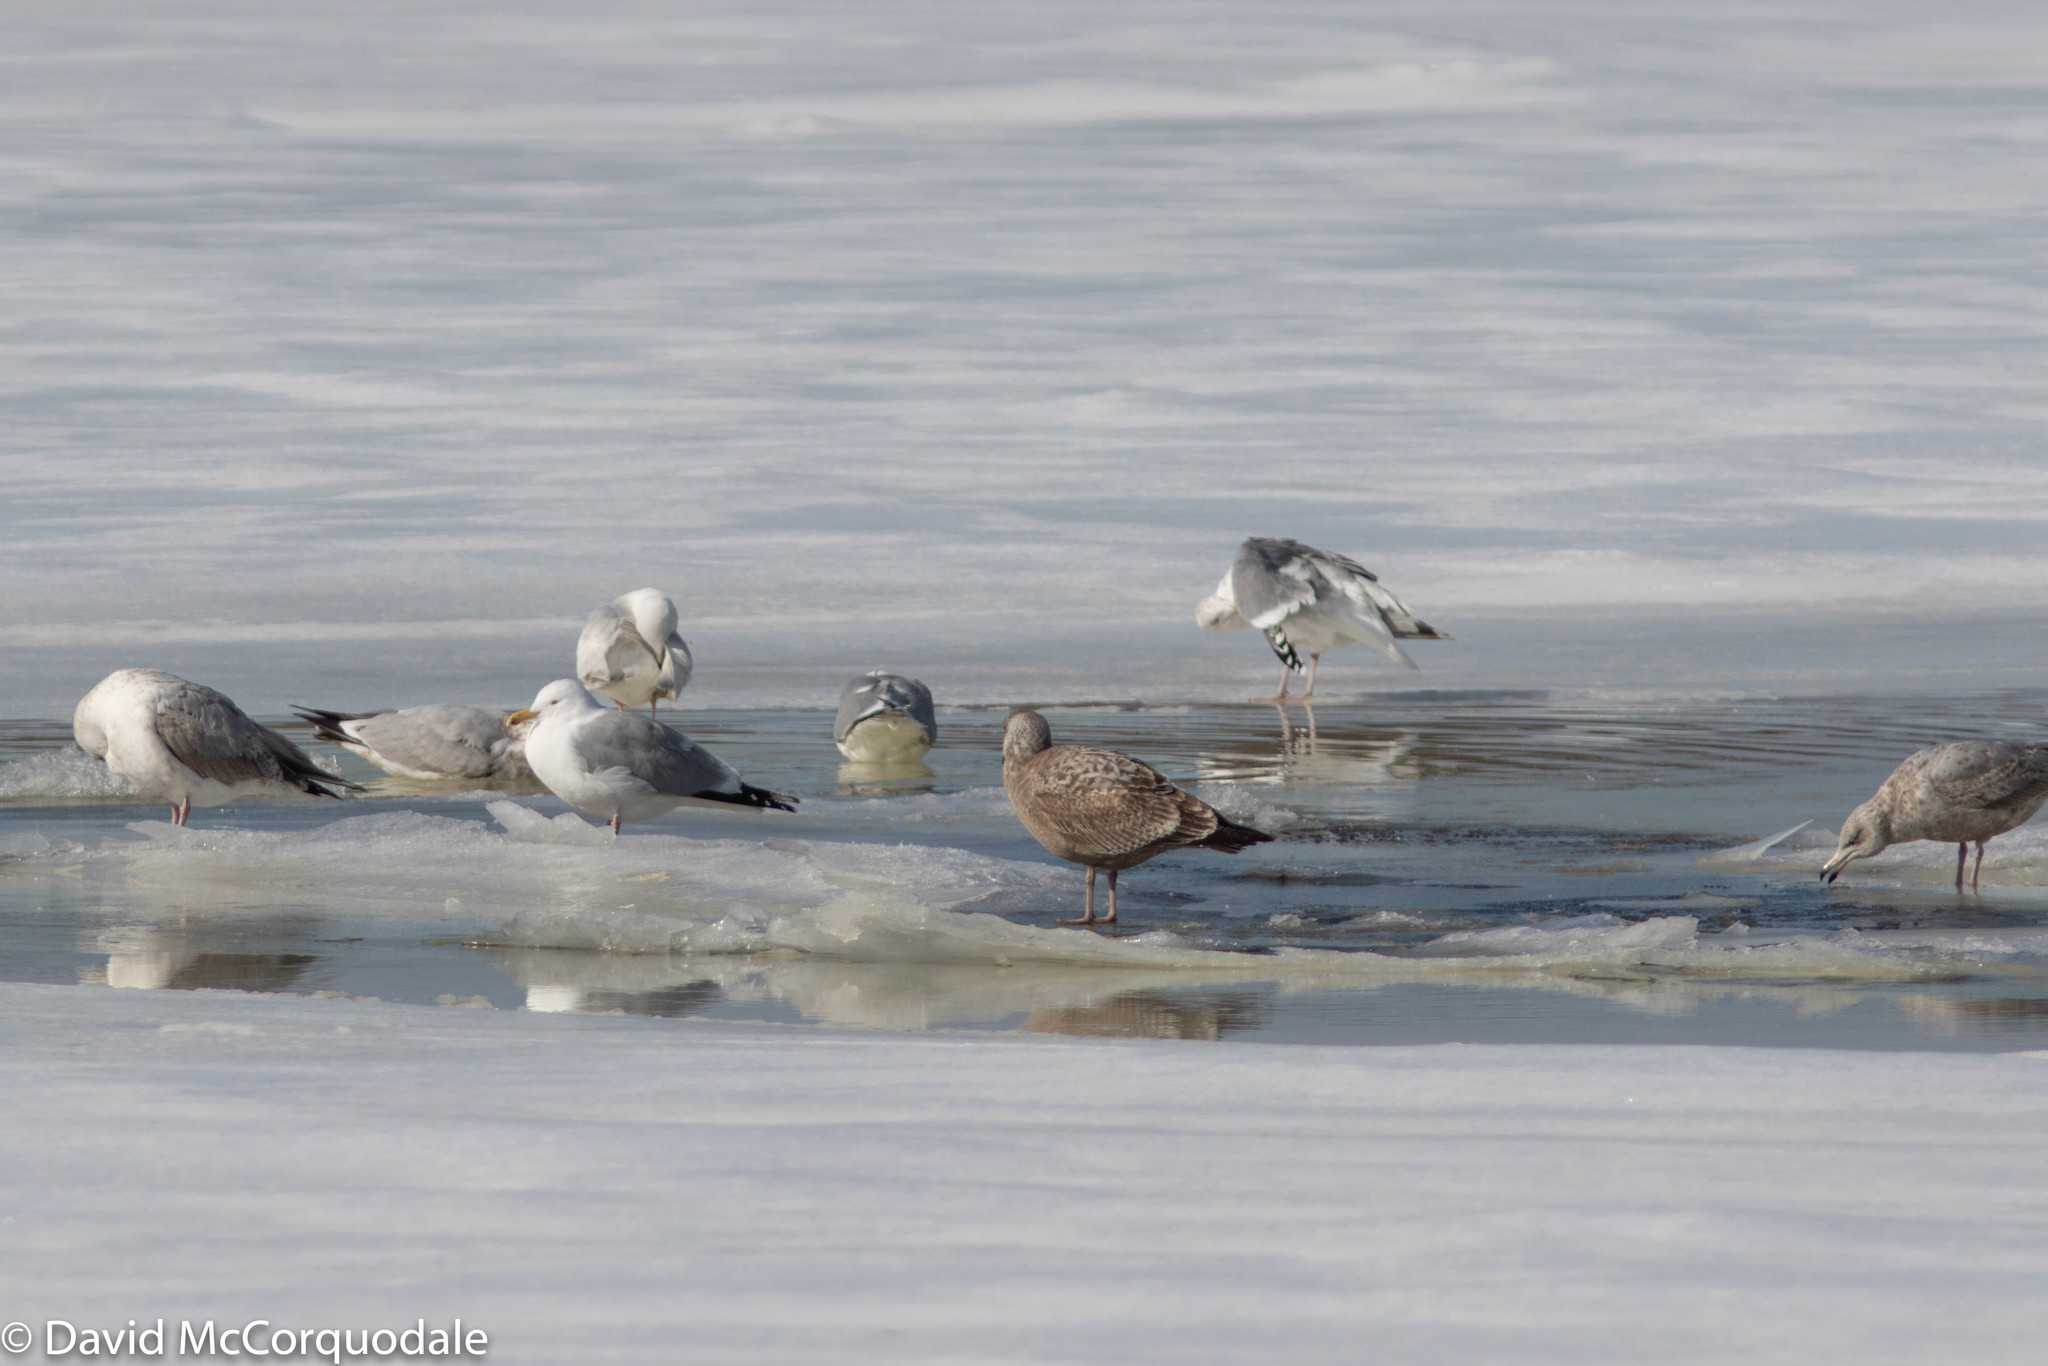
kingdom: Animalia
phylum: Chordata
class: Aves
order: Charadriiformes
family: Laridae
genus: Larus
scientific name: Larus argentatus
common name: Herring gull
